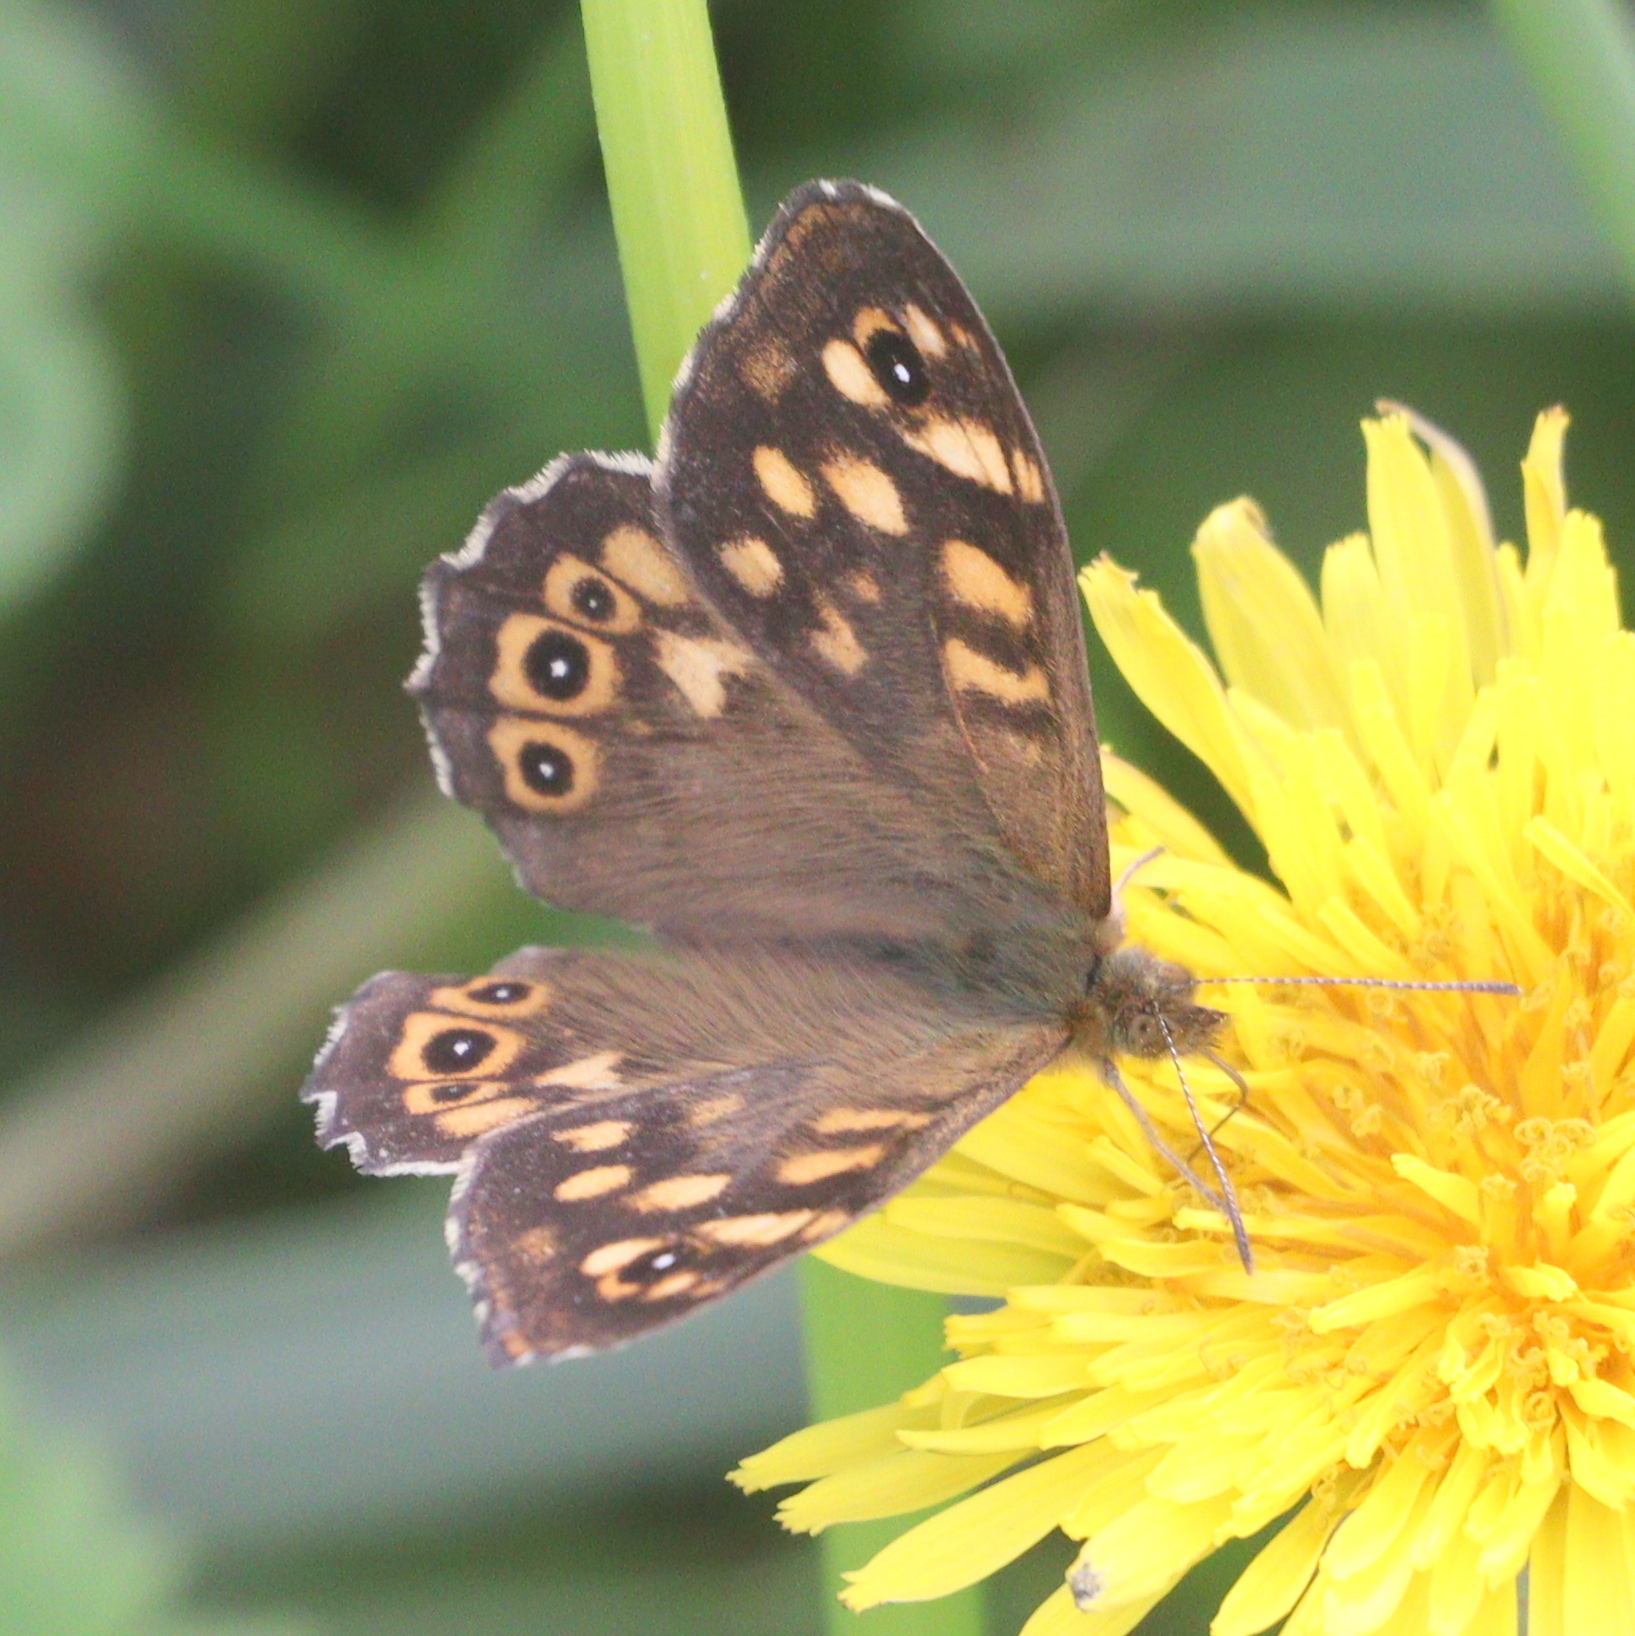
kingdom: Animalia
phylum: Arthropoda
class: Insecta
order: Lepidoptera
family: Nymphalidae
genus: Pararge
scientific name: Pararge aegeria
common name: Speckled wood
